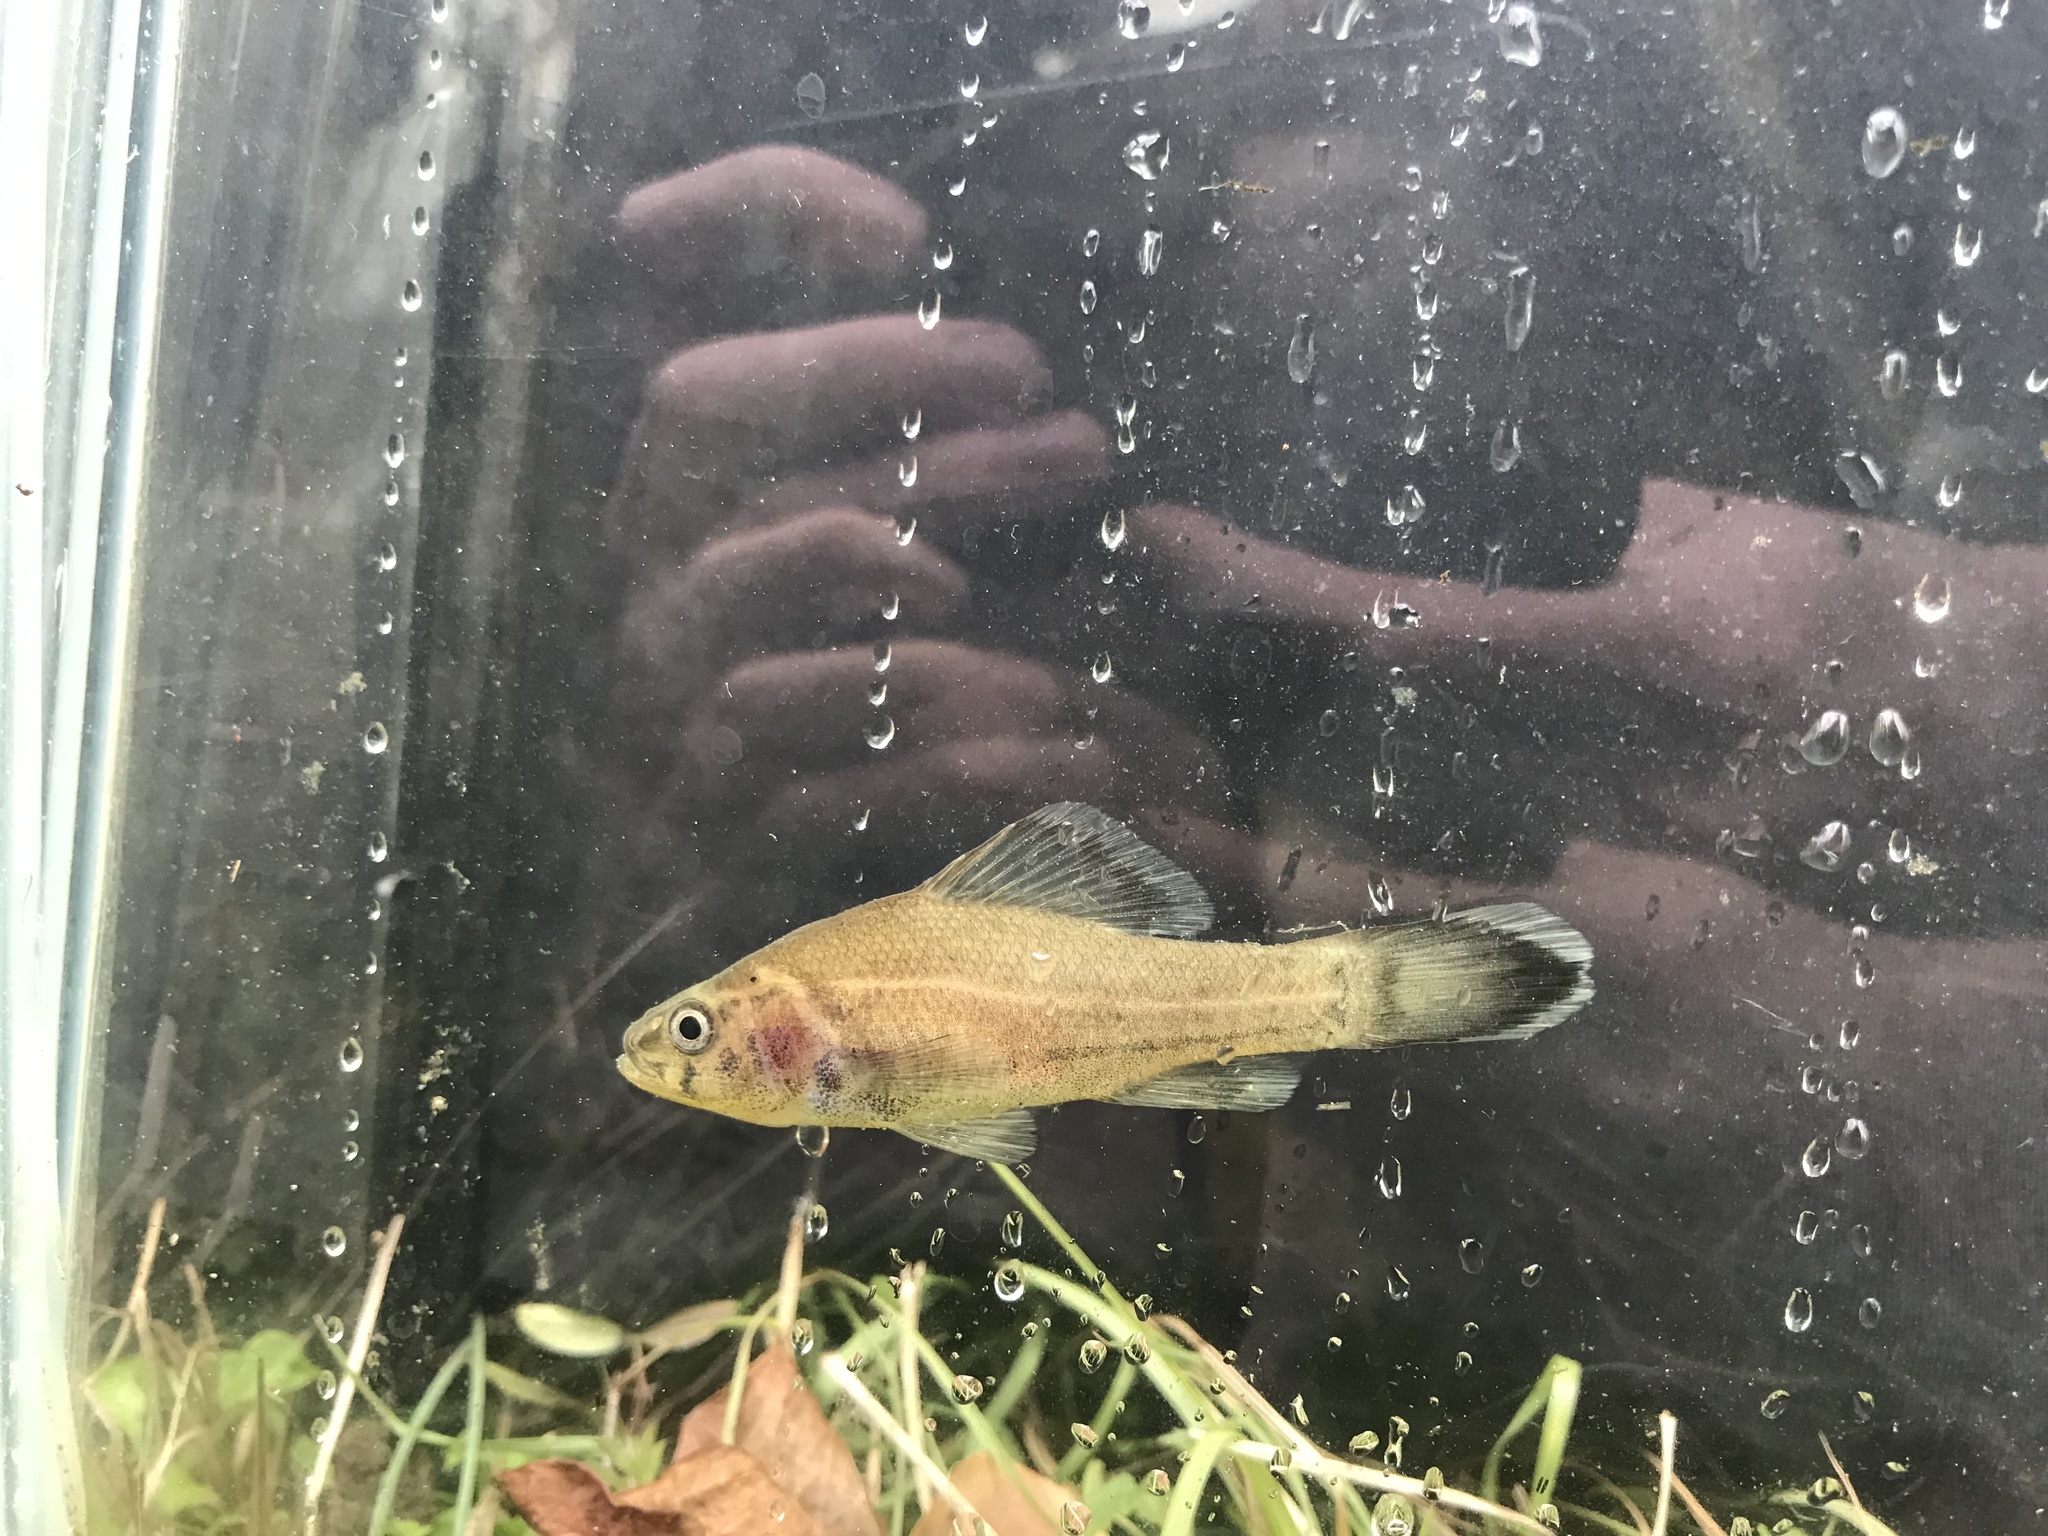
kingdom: Animalia
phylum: Chordata
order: Percopsiformes
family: Aphredoderidae
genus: Aphredoderus
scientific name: Aphredoderus
